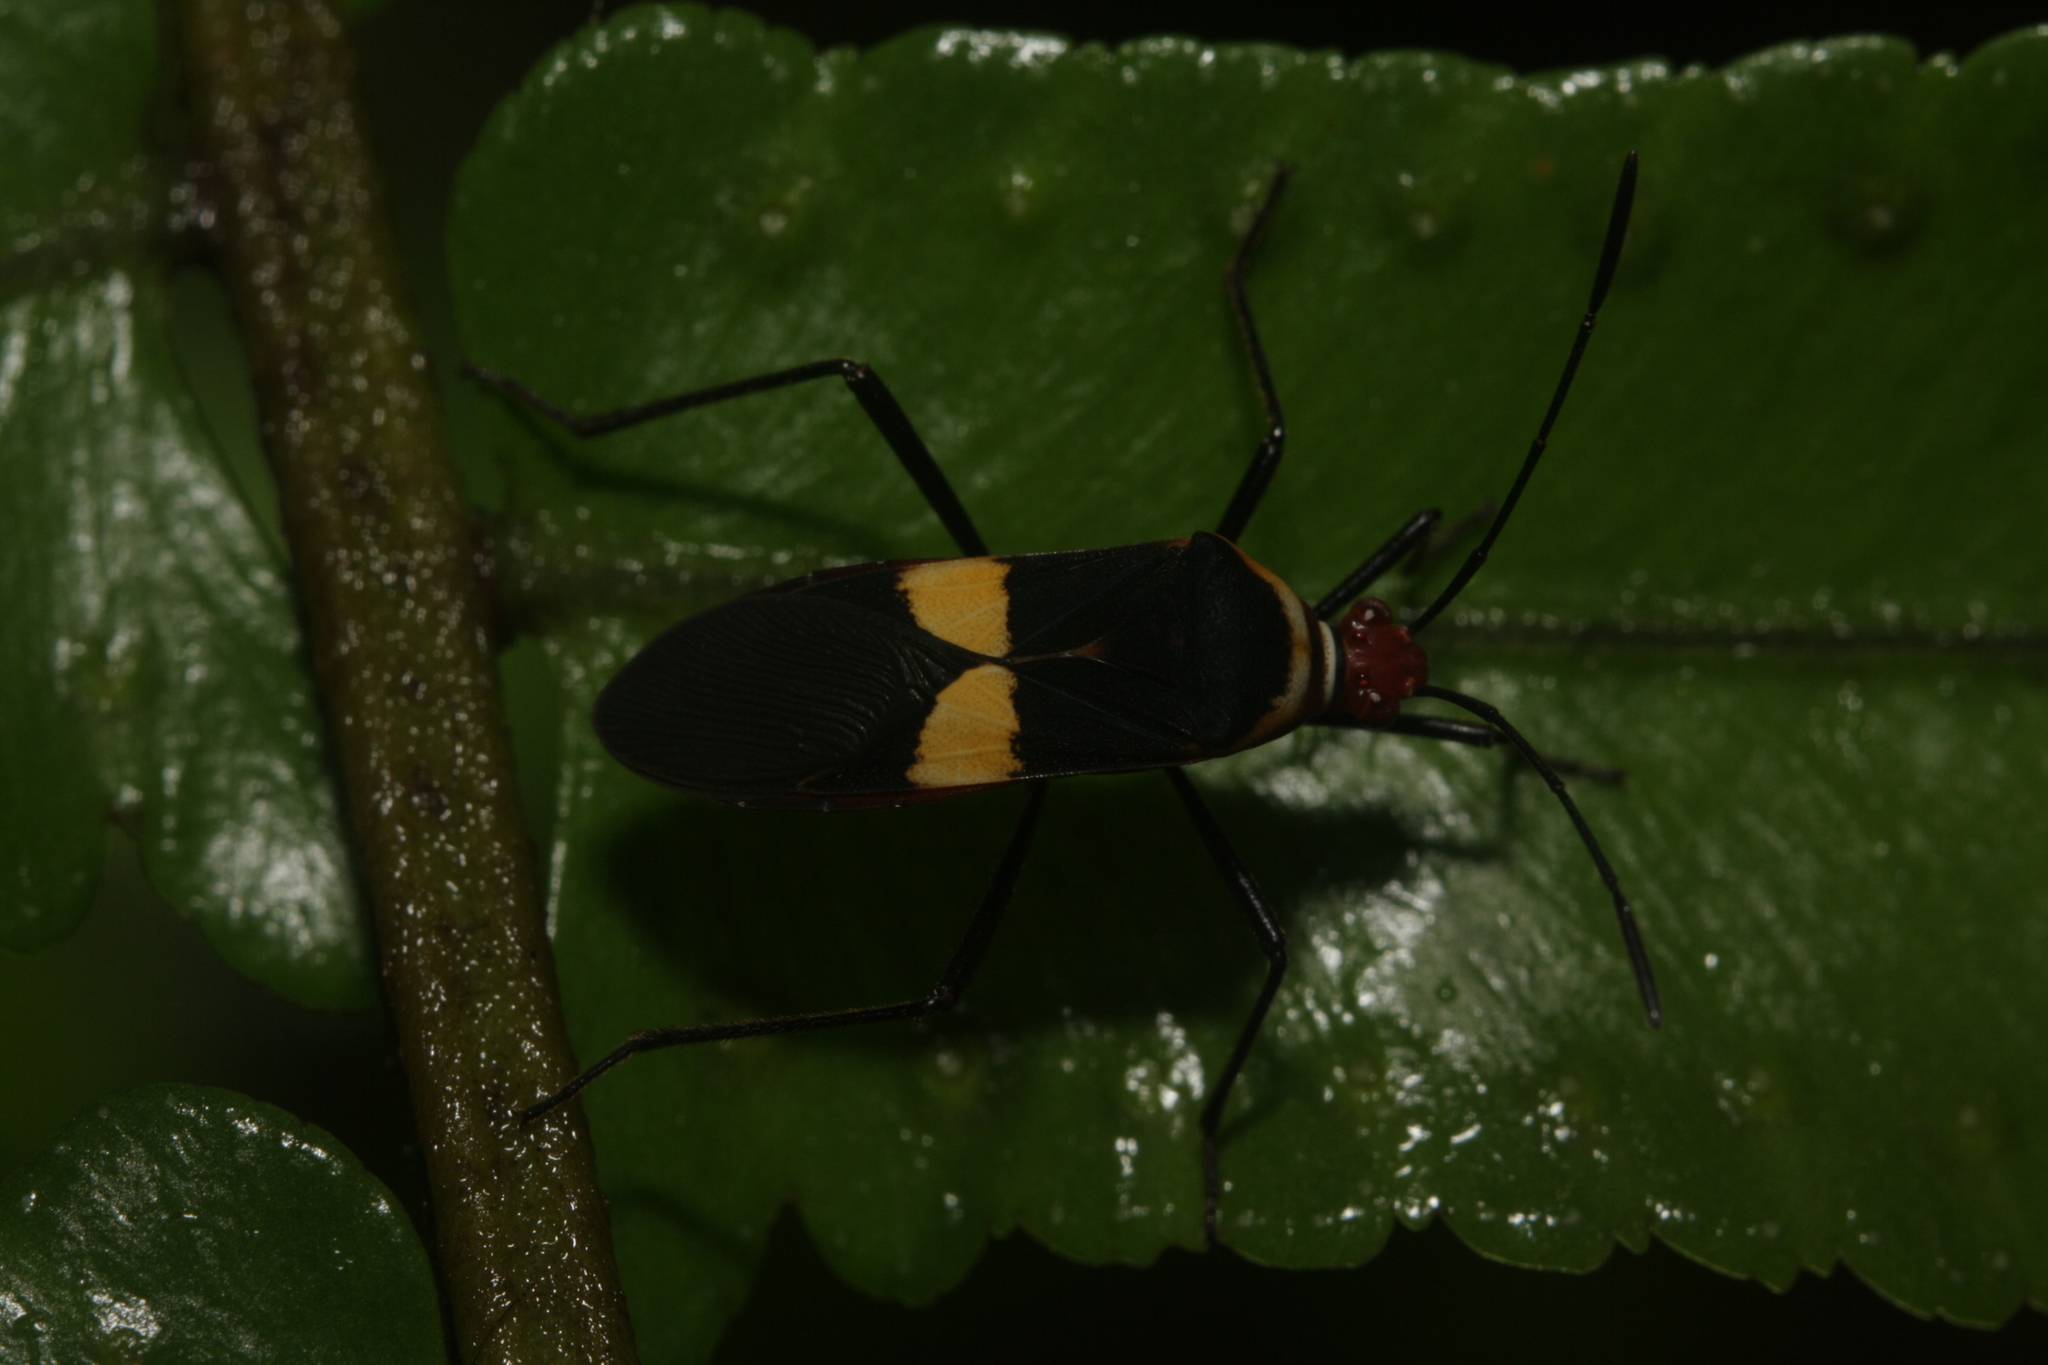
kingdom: Animalia
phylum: Arthropoda
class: Insecta
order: Hemiptera
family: Coreidae
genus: Hypselonotus
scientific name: Hypselonotus interruptus
